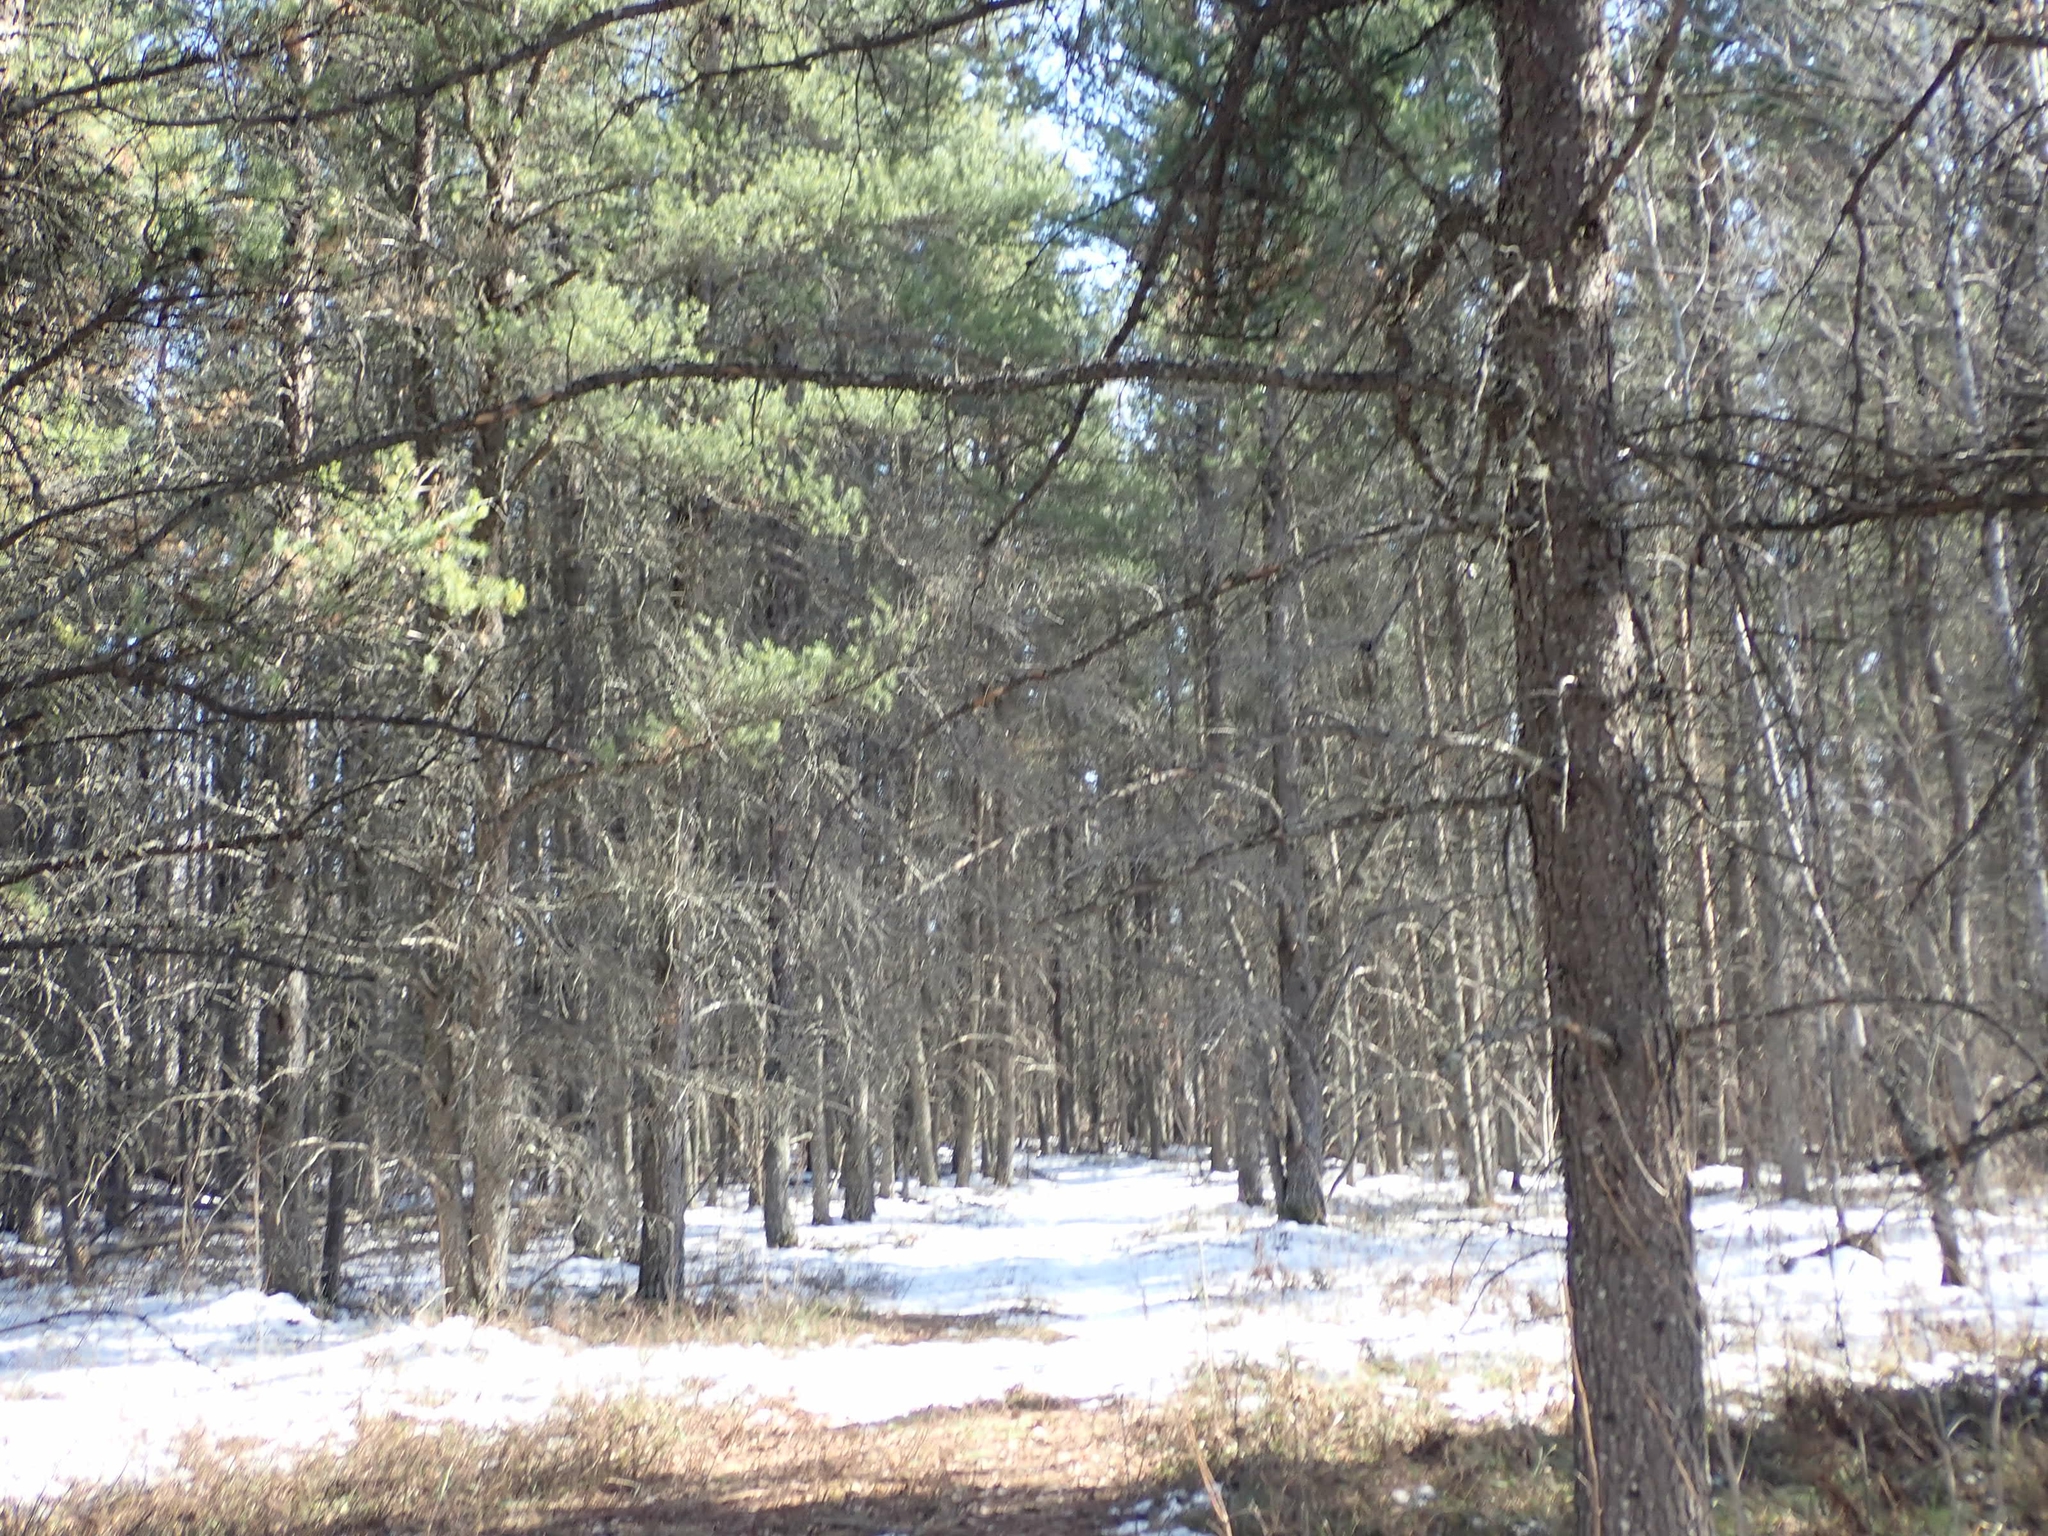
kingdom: Plantae
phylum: Tracheophyta
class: Pinopsida
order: Pinales
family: Pinaceae
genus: Pinus
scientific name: Pinus banksiana
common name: Jack pine
